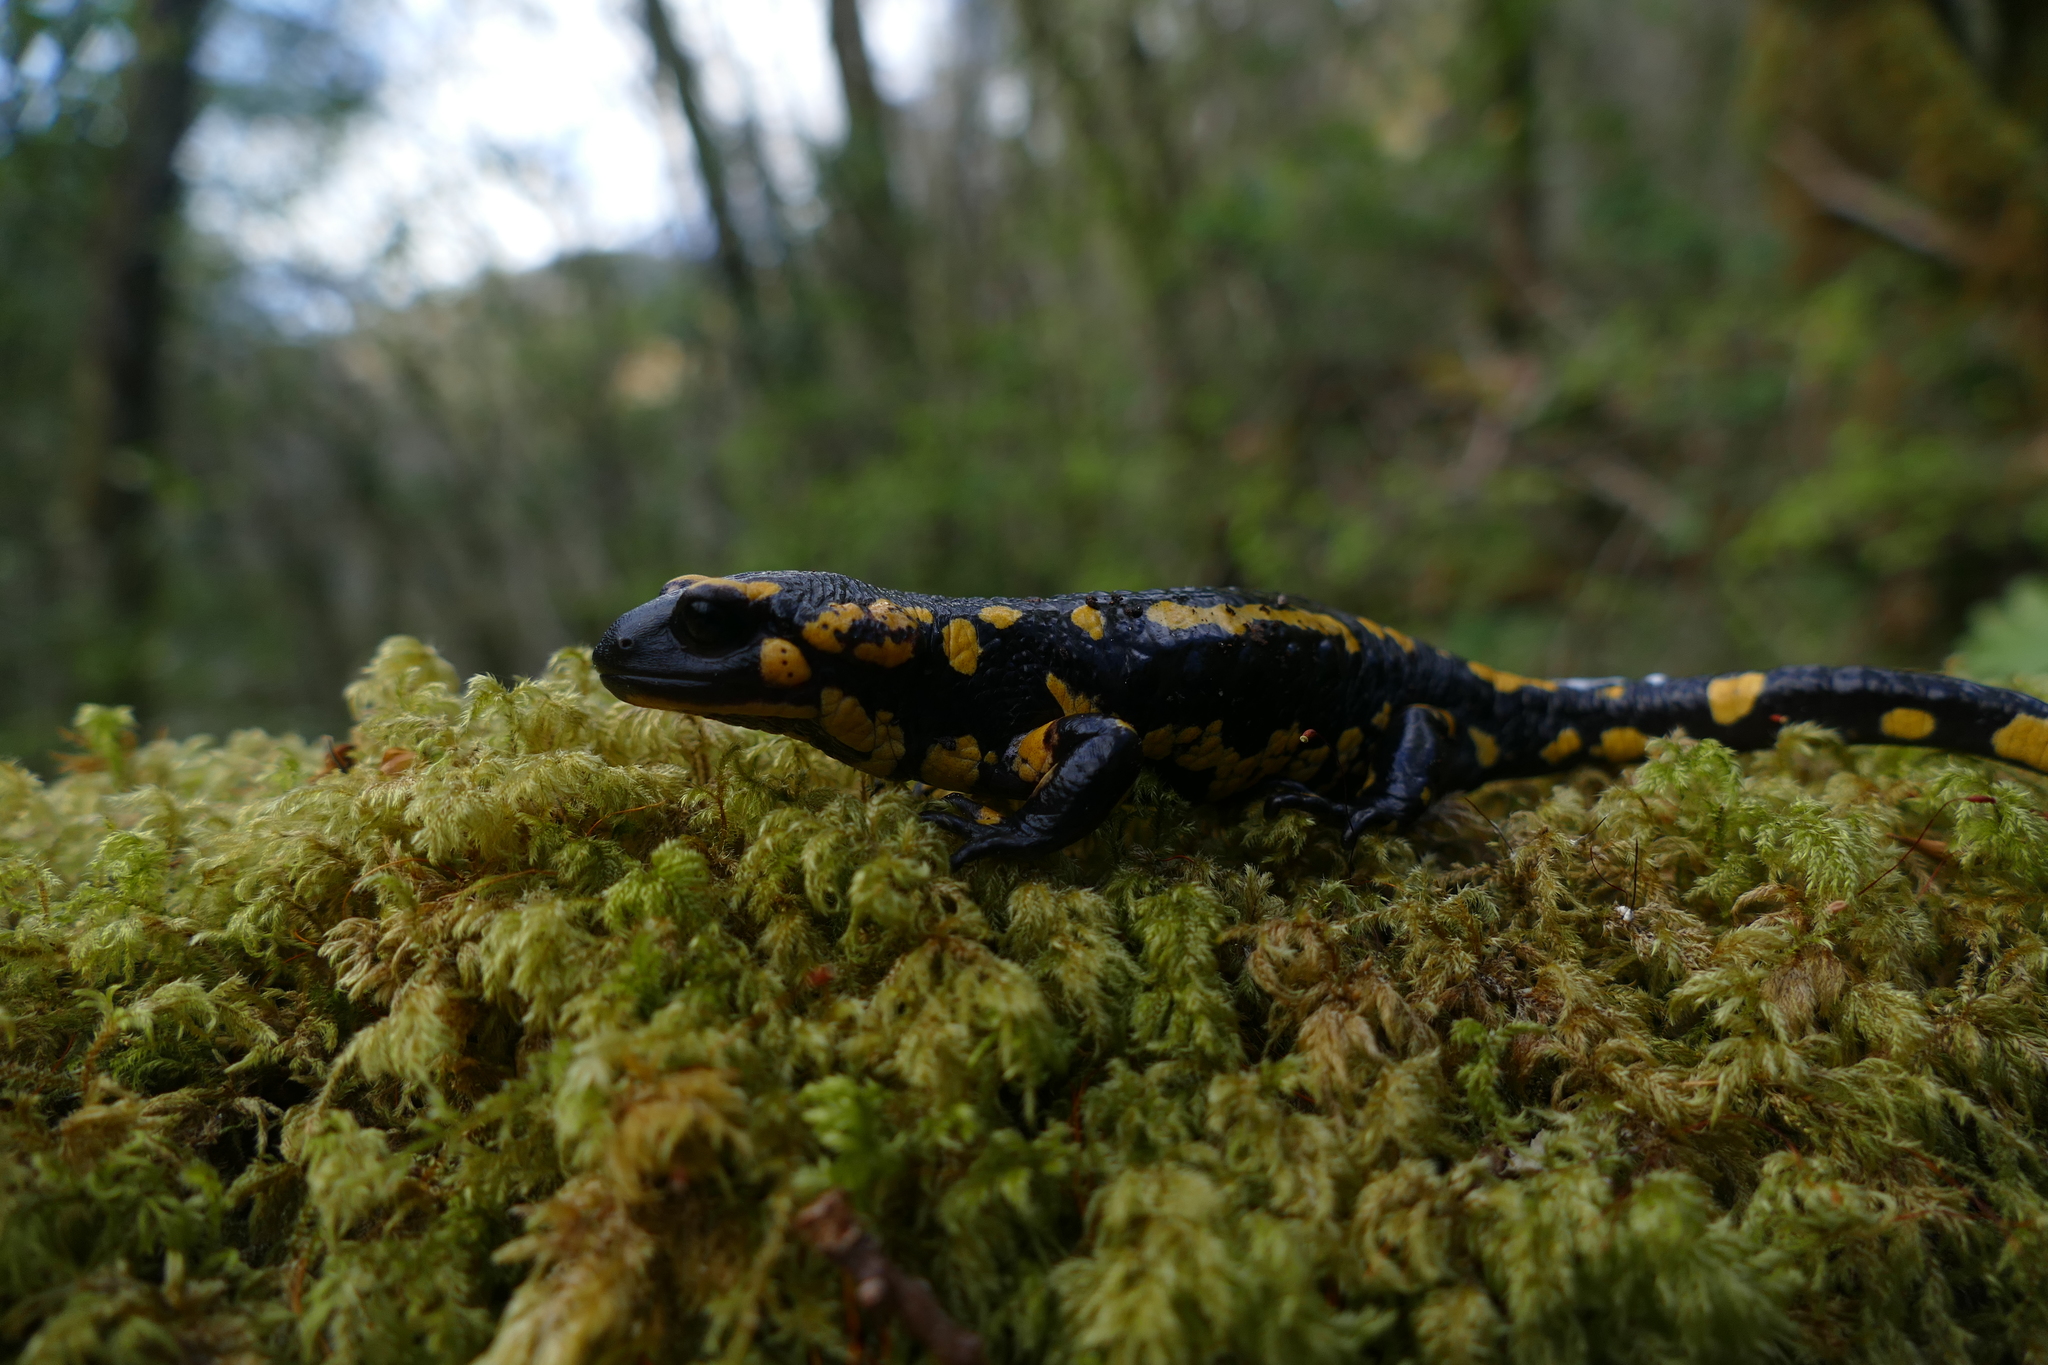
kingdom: Animalia
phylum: Chordata
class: Amphibia
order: Caudata
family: Salamandridae
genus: Salamandra
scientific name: Salamandra salamandra
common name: Fire salamander
